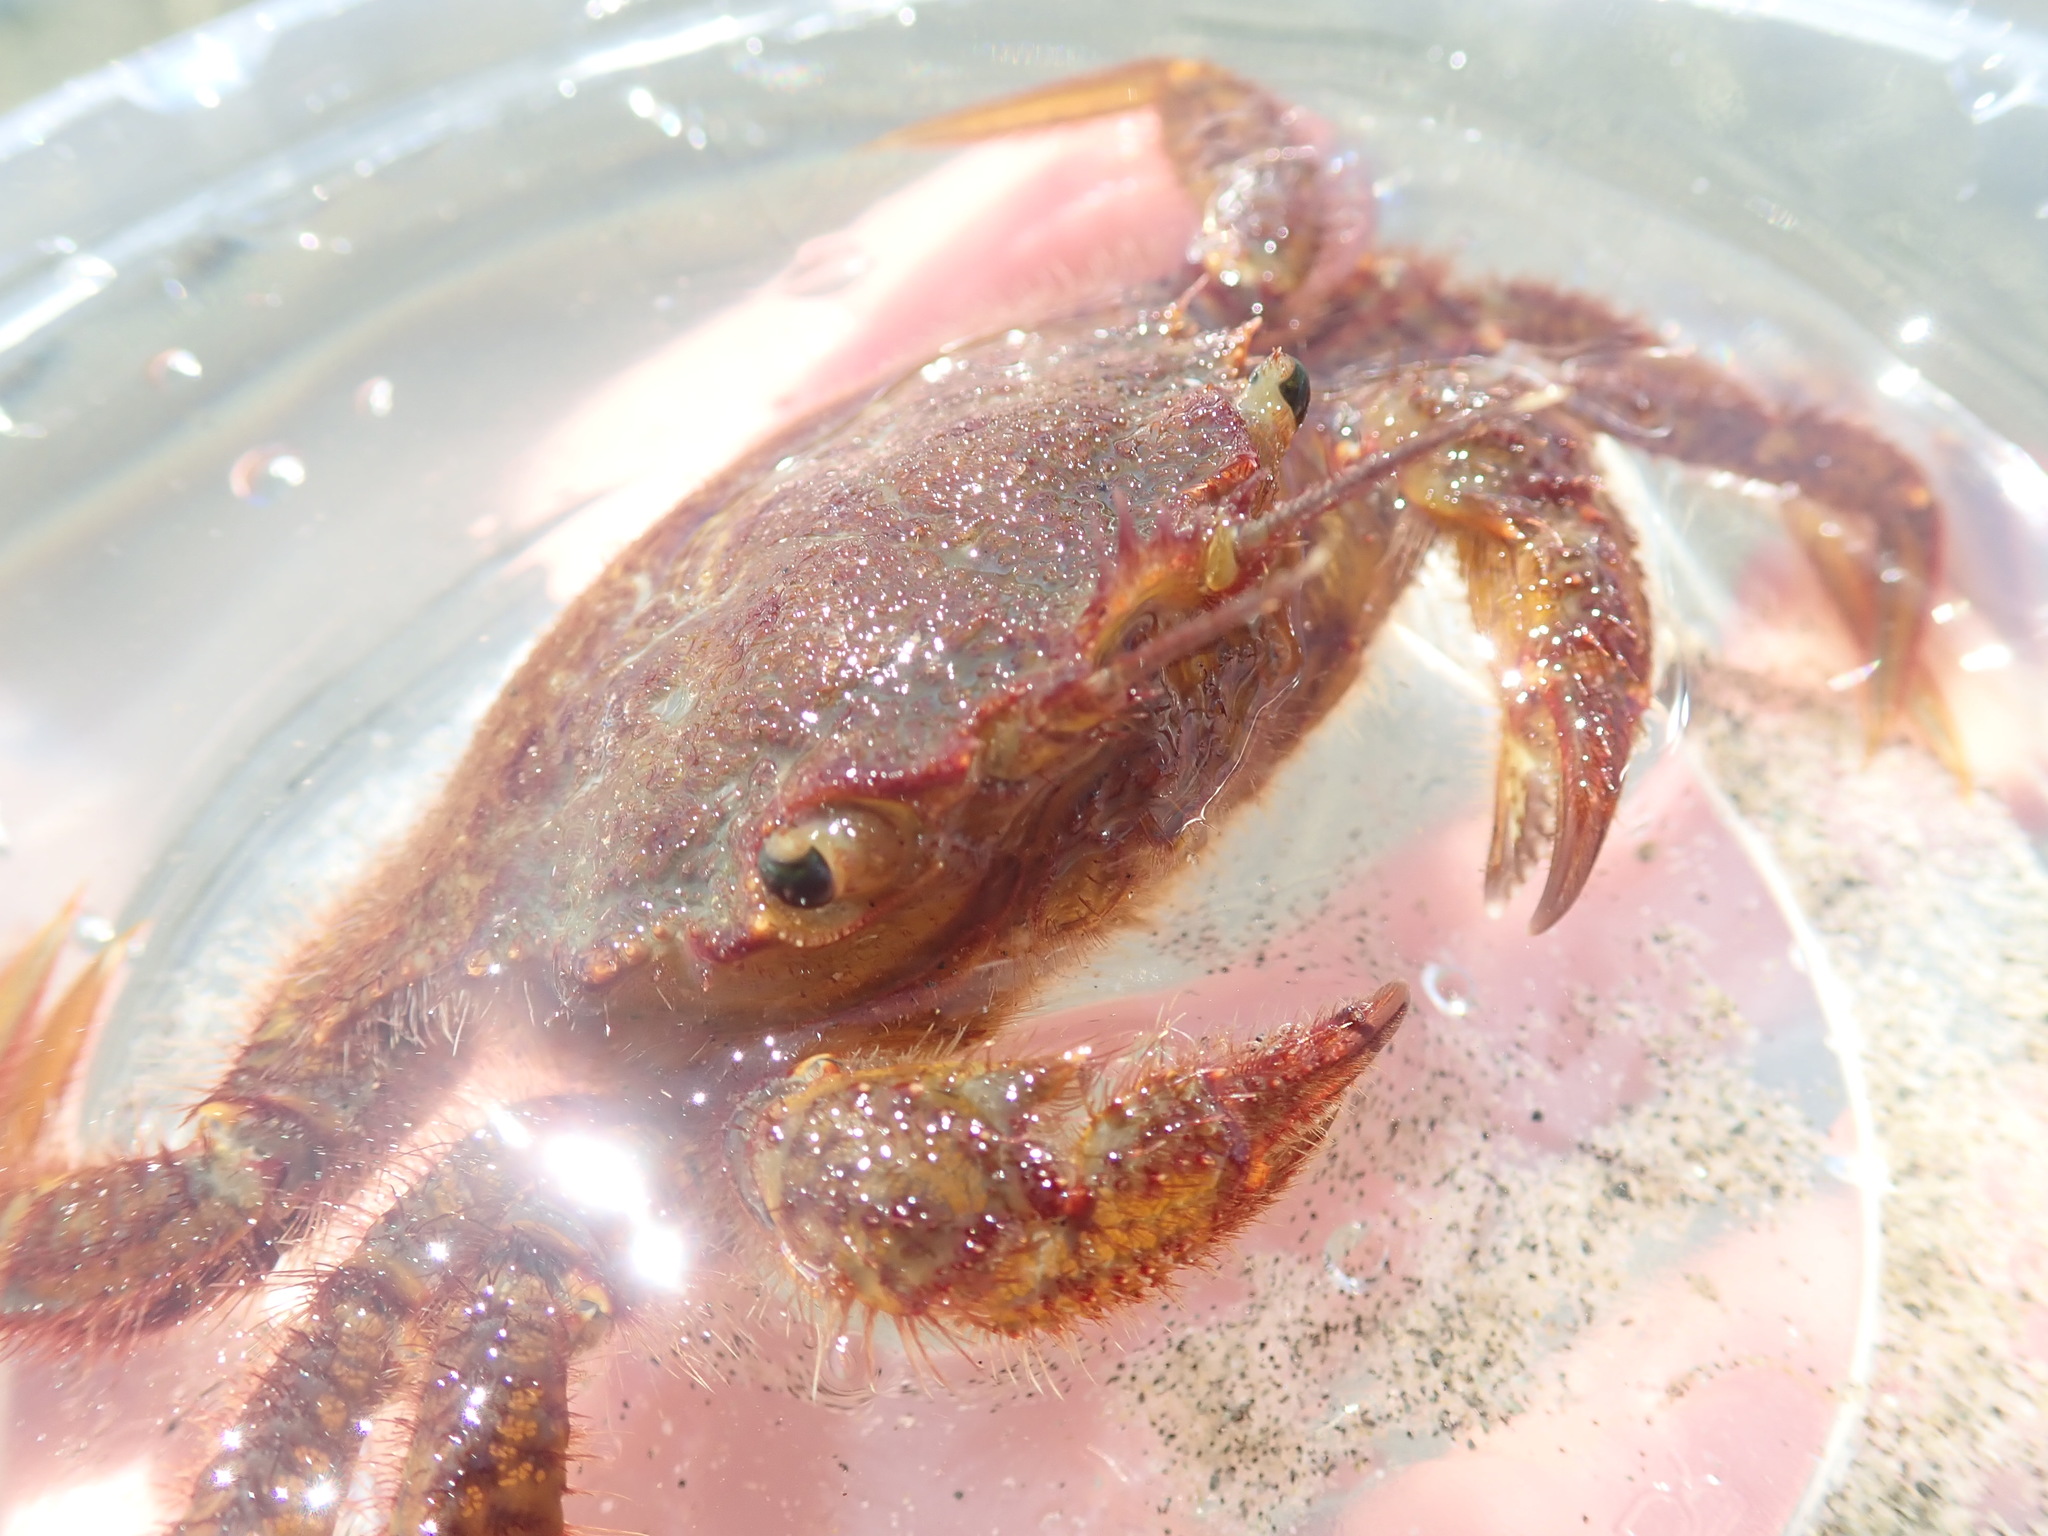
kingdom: Animalia
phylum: Arthropoda
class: Malacostraca
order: Decapoda
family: Cheiragonidae
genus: Telmessus
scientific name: Telmessus cheiragonus
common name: Helmet crab
